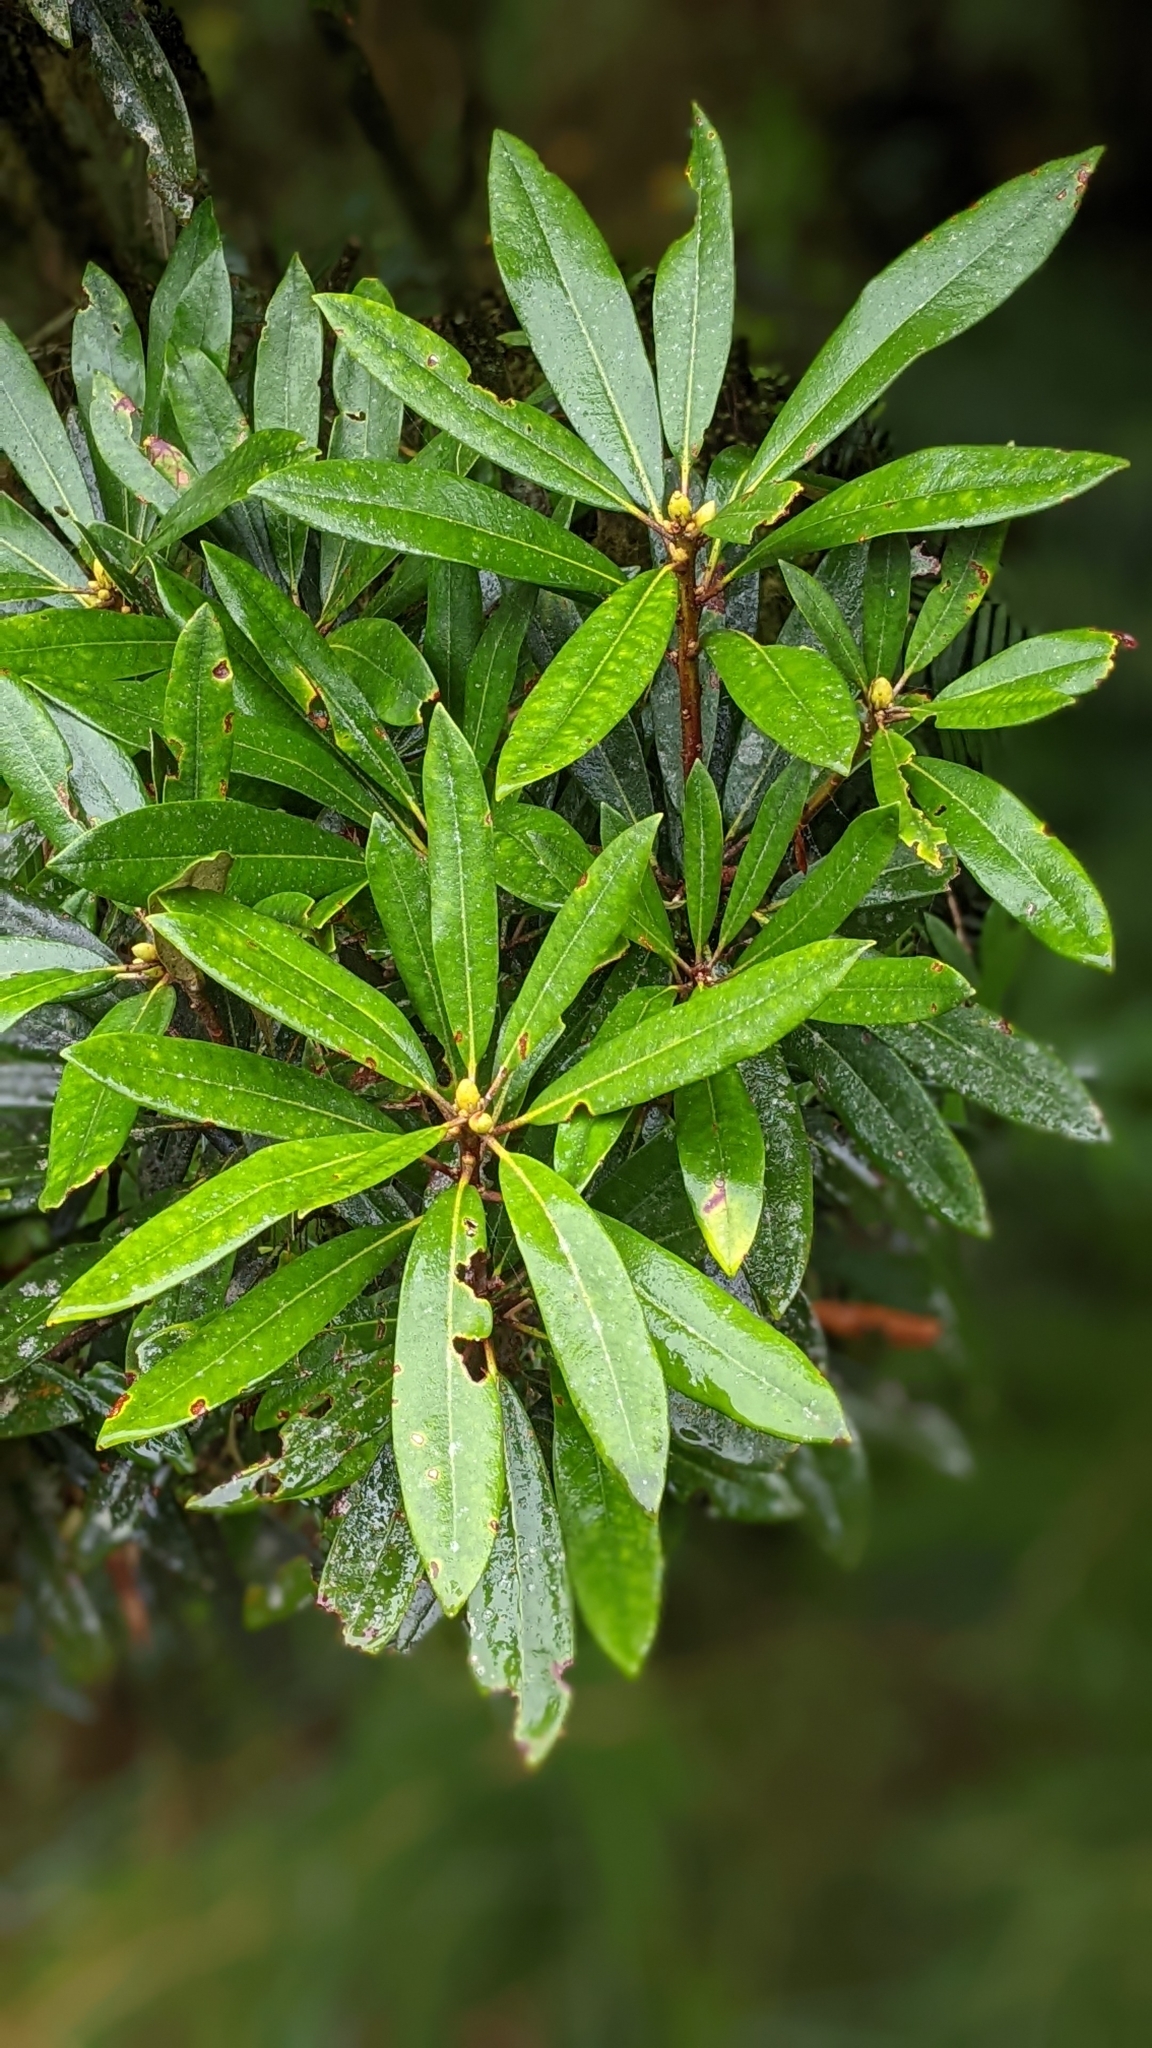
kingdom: Plantae
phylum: Tracheophyta
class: Magnoliopsida
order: Ericales
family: Ericaceae
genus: Rhododendron
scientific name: Rhododendron formosanum
